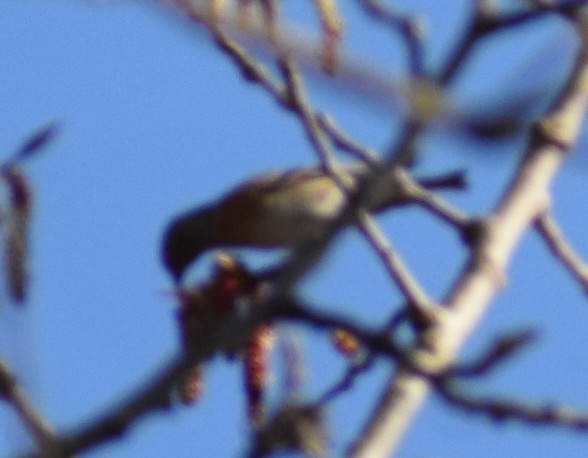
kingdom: Animalia
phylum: Chordata
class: Aves
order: Passeriformes
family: Fringillidae
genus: Fringilla
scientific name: Fringilla montifringilla
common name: Brambling
